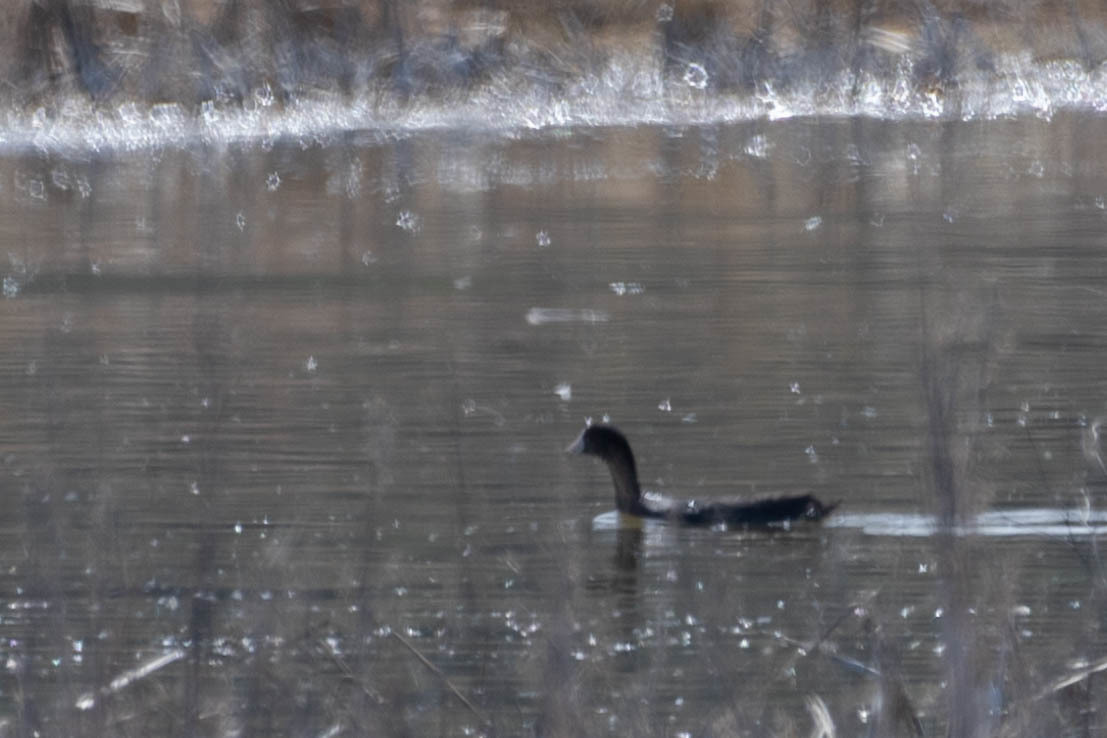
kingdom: Animalia
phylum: Chordata
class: Aves
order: Gruiformes
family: Rallidae
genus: Fulica
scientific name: Fulica americana
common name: American coot
